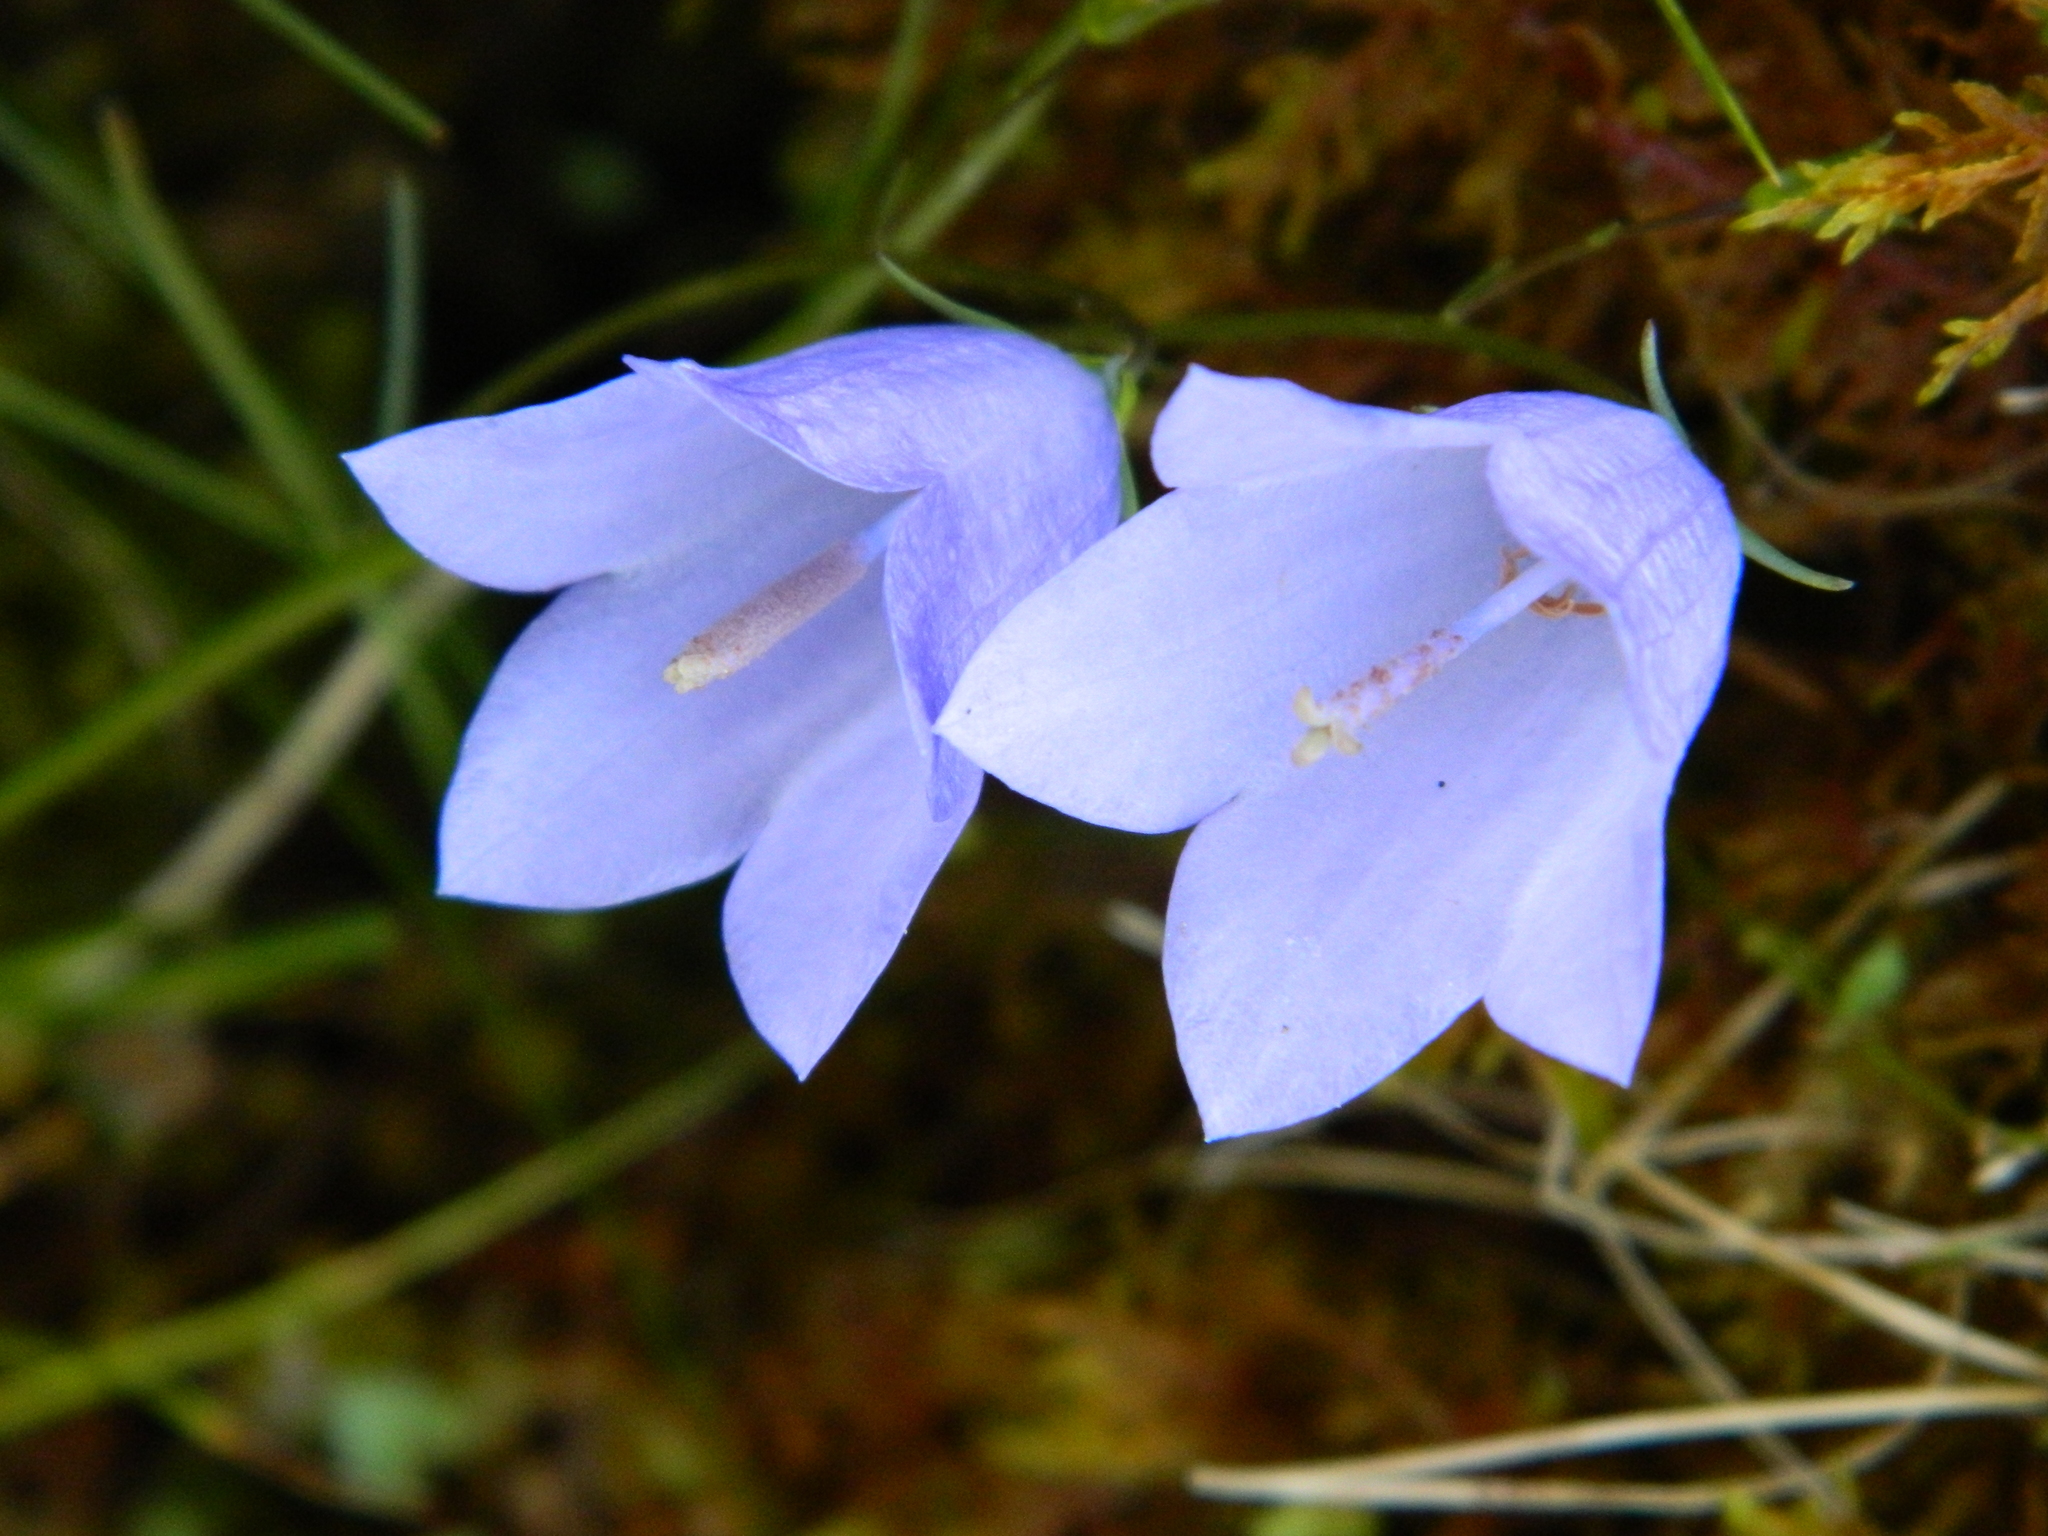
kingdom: Plantae
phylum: Tracheophyta
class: Magnoliopsida
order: Asterales
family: Campanulaceae
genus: Campanula
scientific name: Campanula rotundifolia
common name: Harebell
